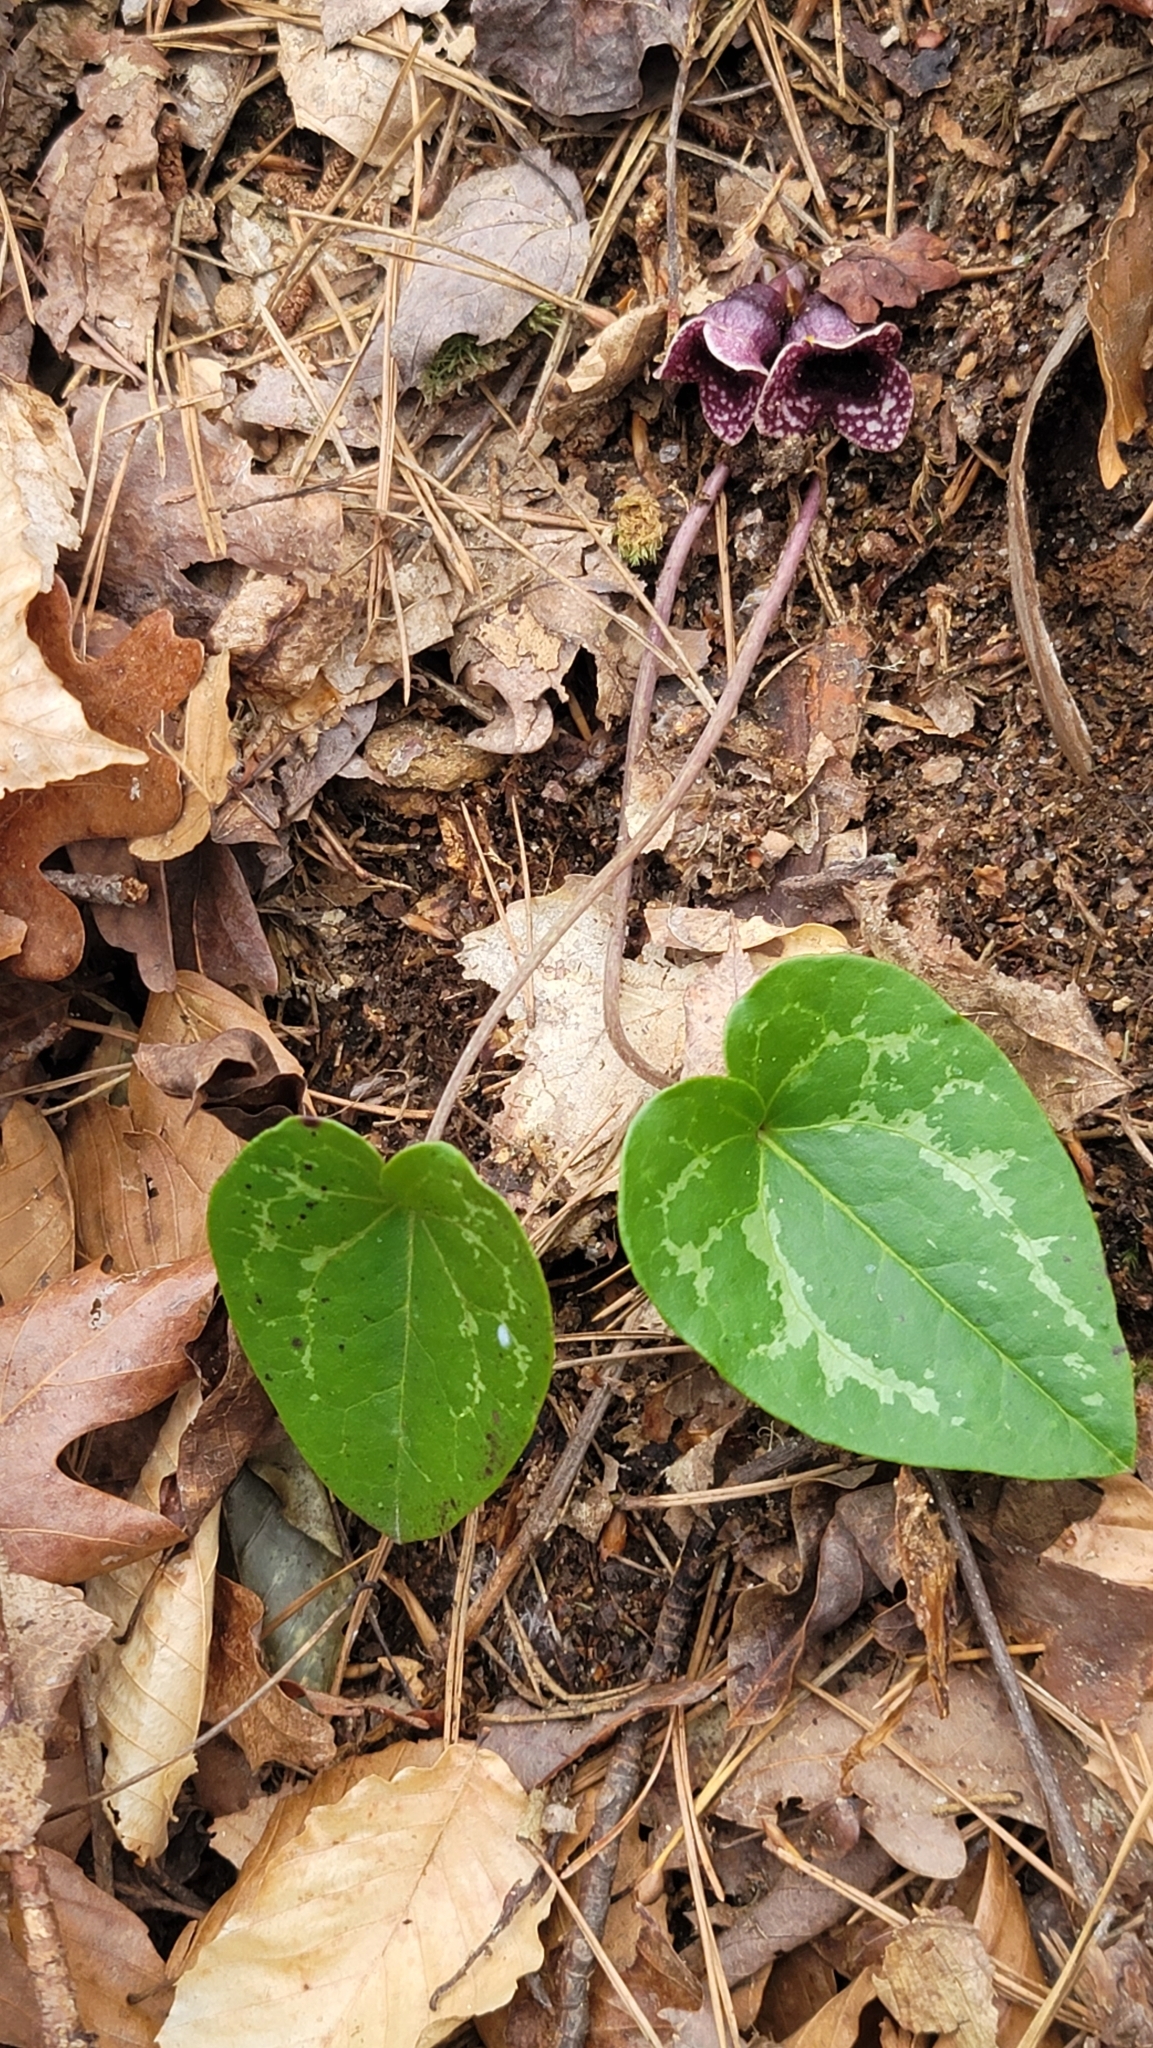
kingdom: Plantae
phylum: Tracheophyta
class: Magnoliopsida
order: Piperales
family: Aristolochiaceae
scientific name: Aristolochiaceae
